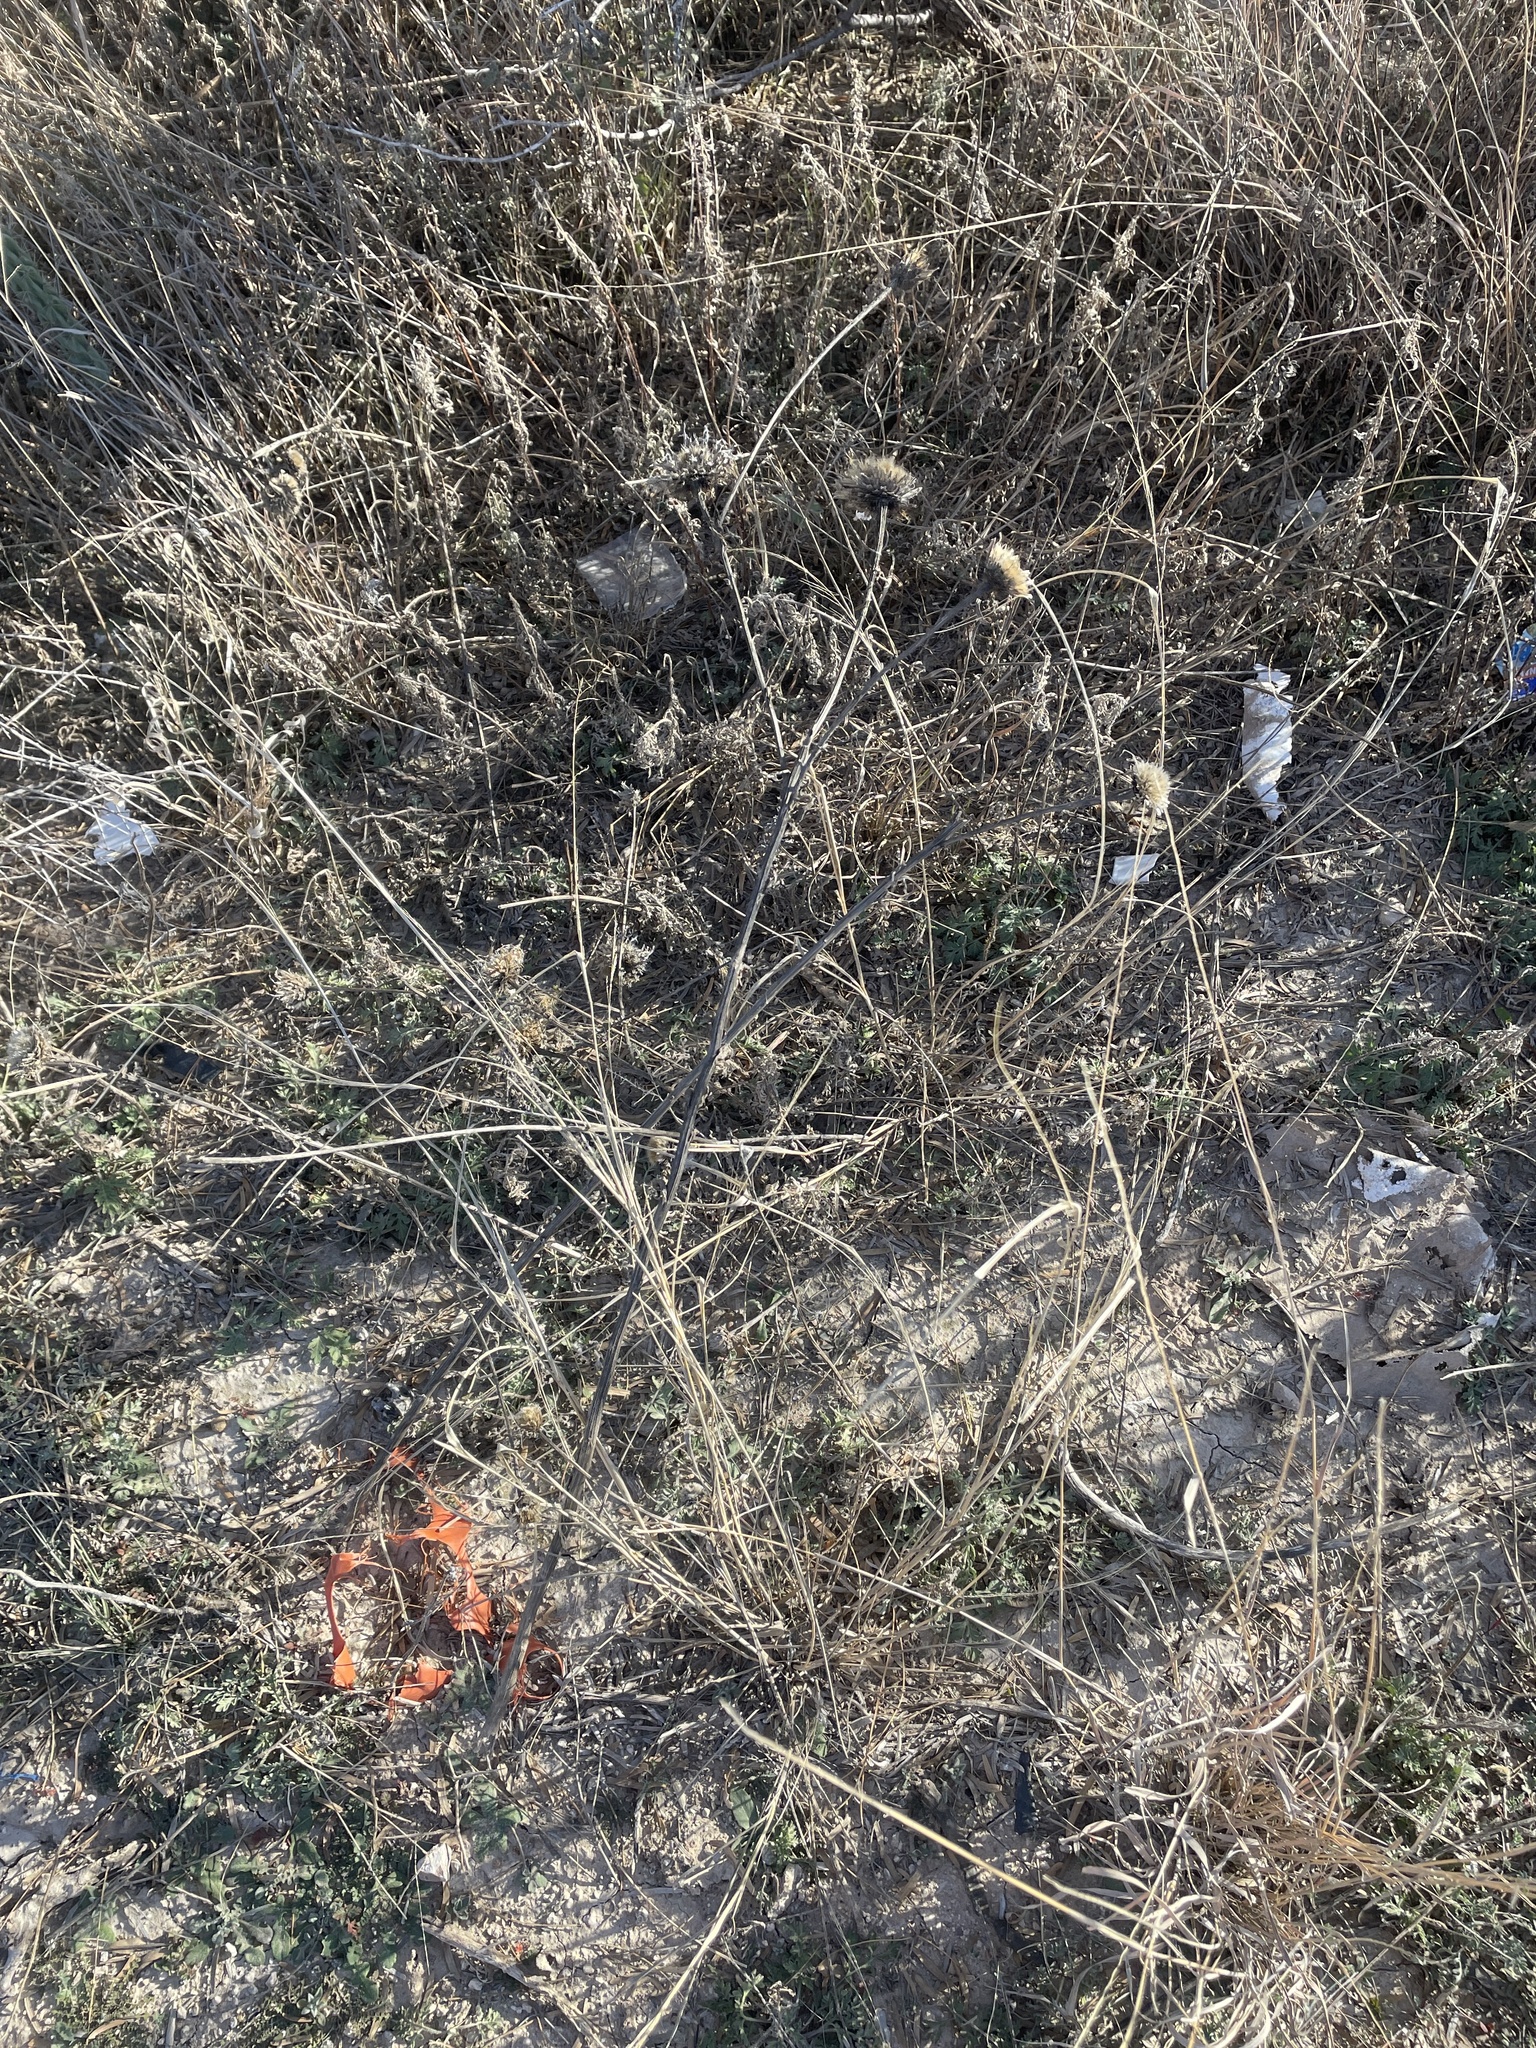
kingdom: Plantae
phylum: Tracheophyta
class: Magnoliopsida
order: Asterales
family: Asteraceae
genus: Plectocephalus
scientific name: Plectocephalus americanus
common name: American basket-flower
